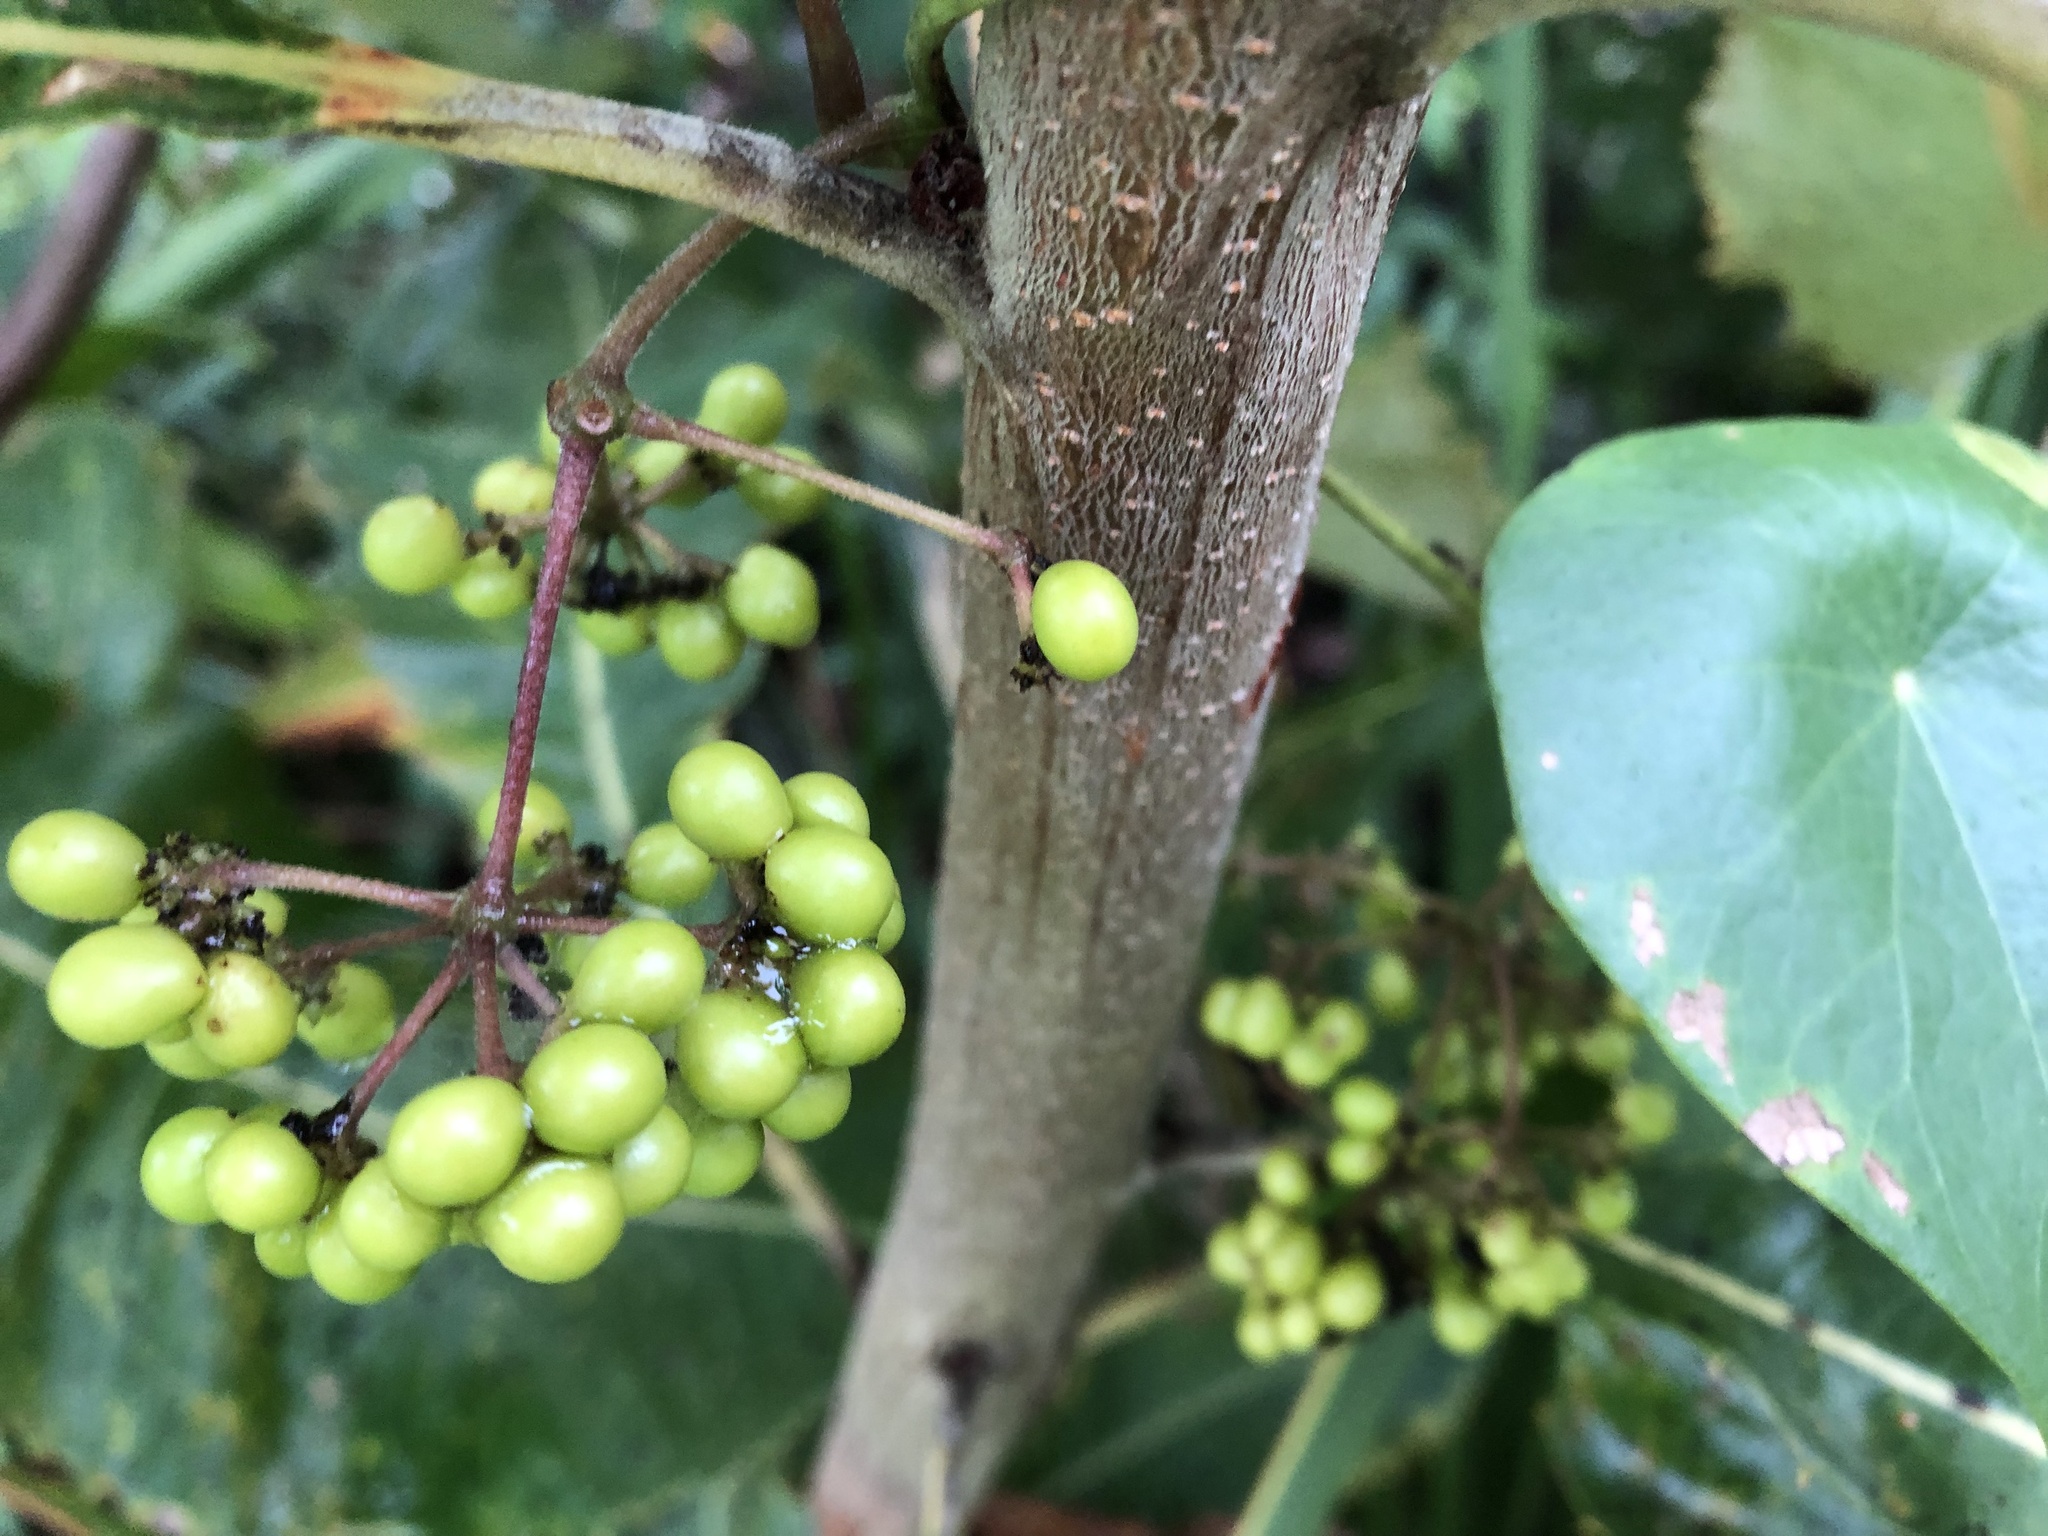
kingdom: Plantae
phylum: Tracheophyta
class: Magnoliopsida
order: Ranunculales
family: Menispermaceae
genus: Stephania
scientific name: Stephania japonica
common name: Snake vine
